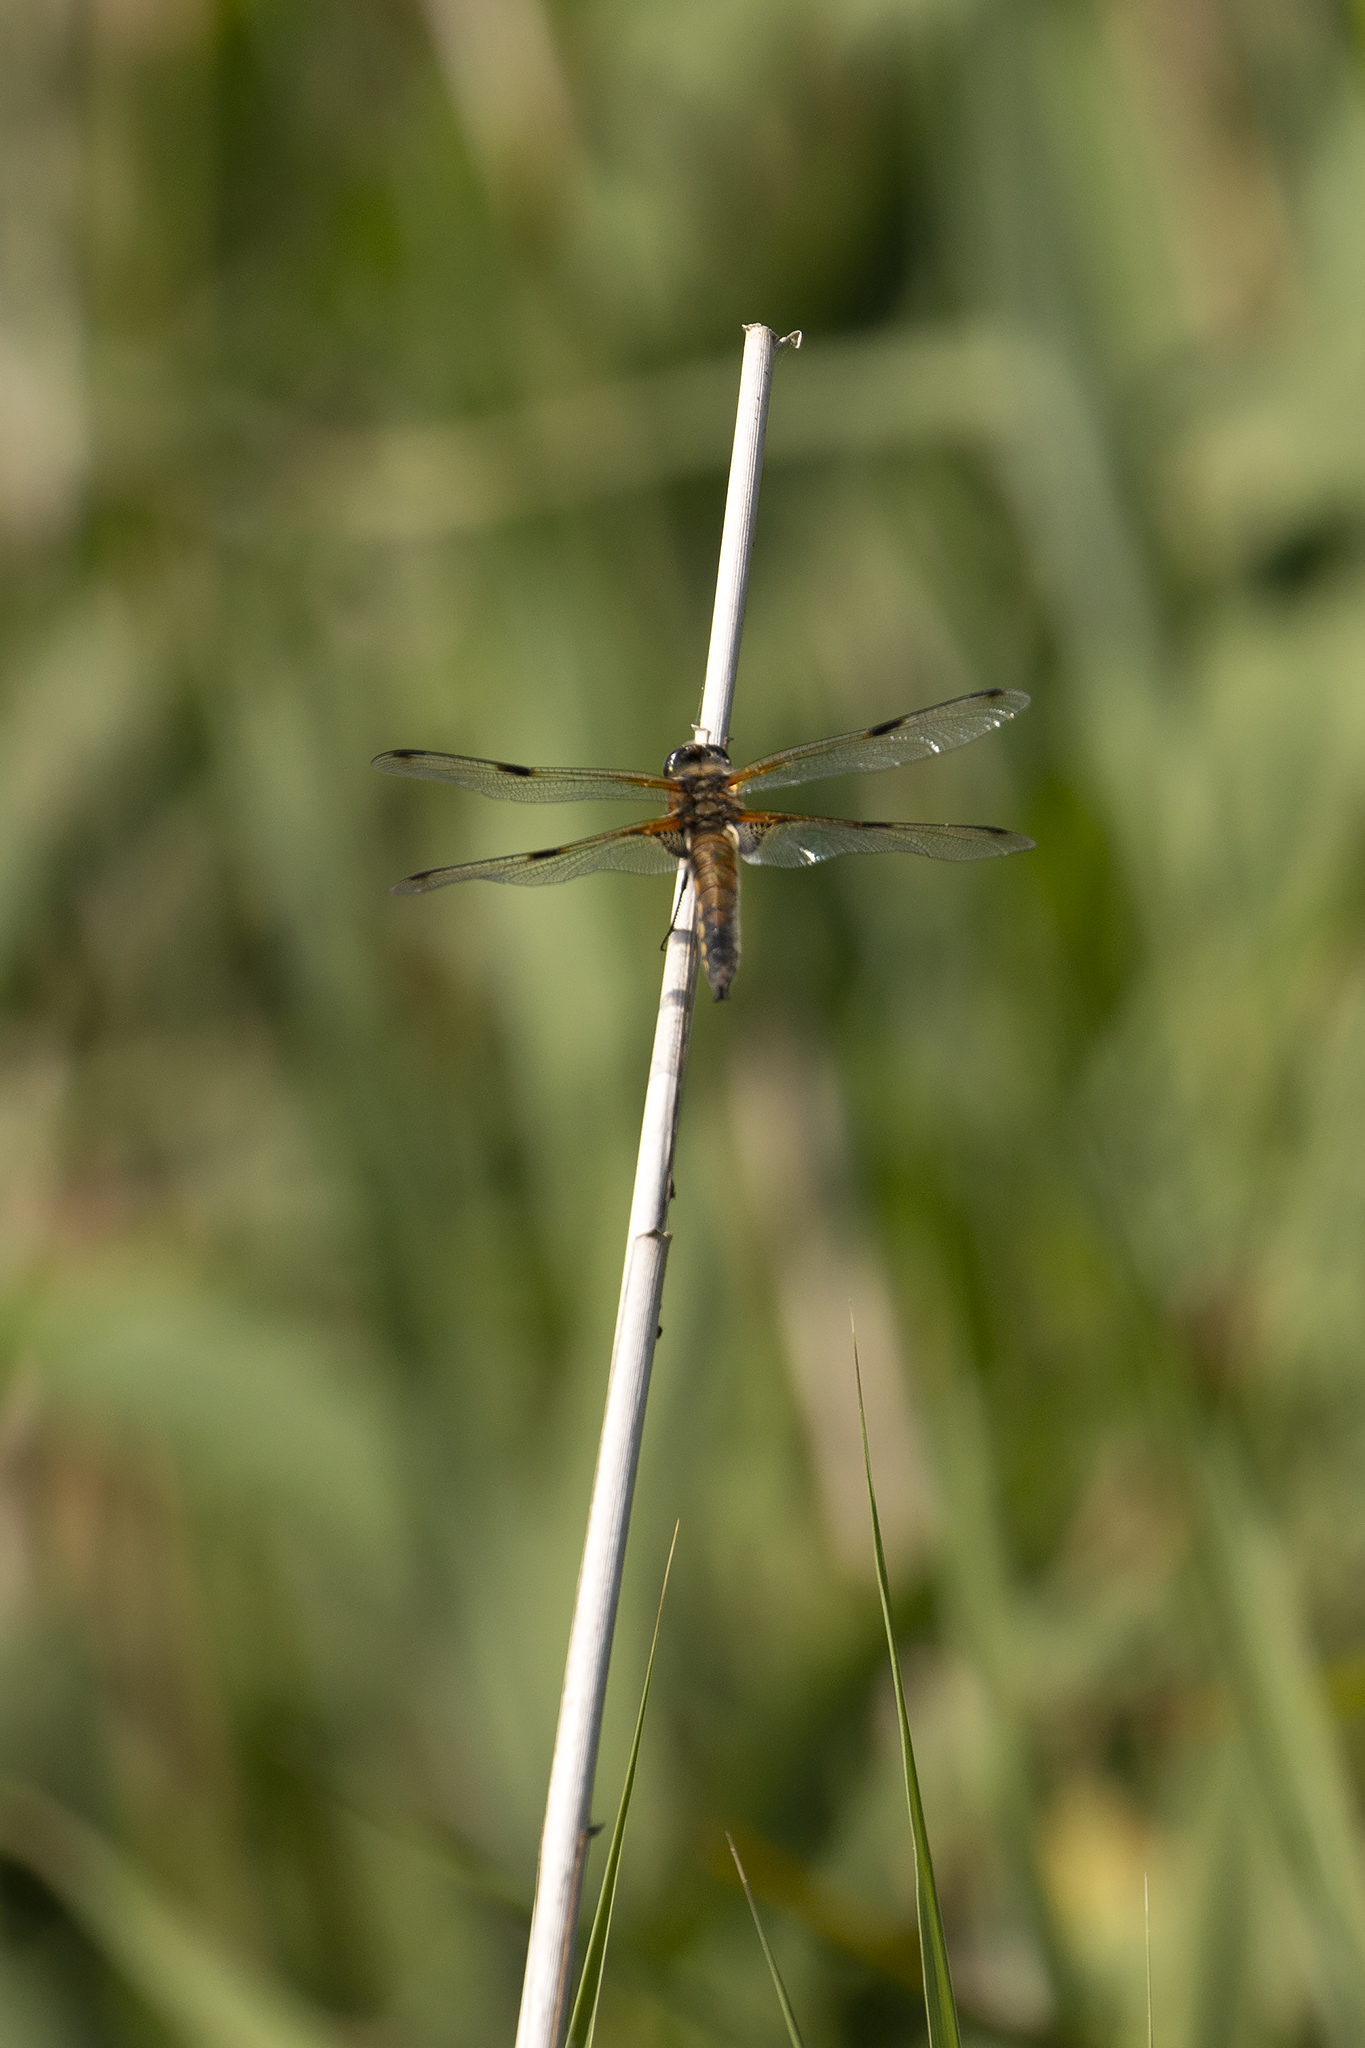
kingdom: Animalia
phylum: Arthropoda
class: Insecta
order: Odonata
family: Libellulidae
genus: Libellula
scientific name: Libellula quadrimaculata
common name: Four-spotted chaser
